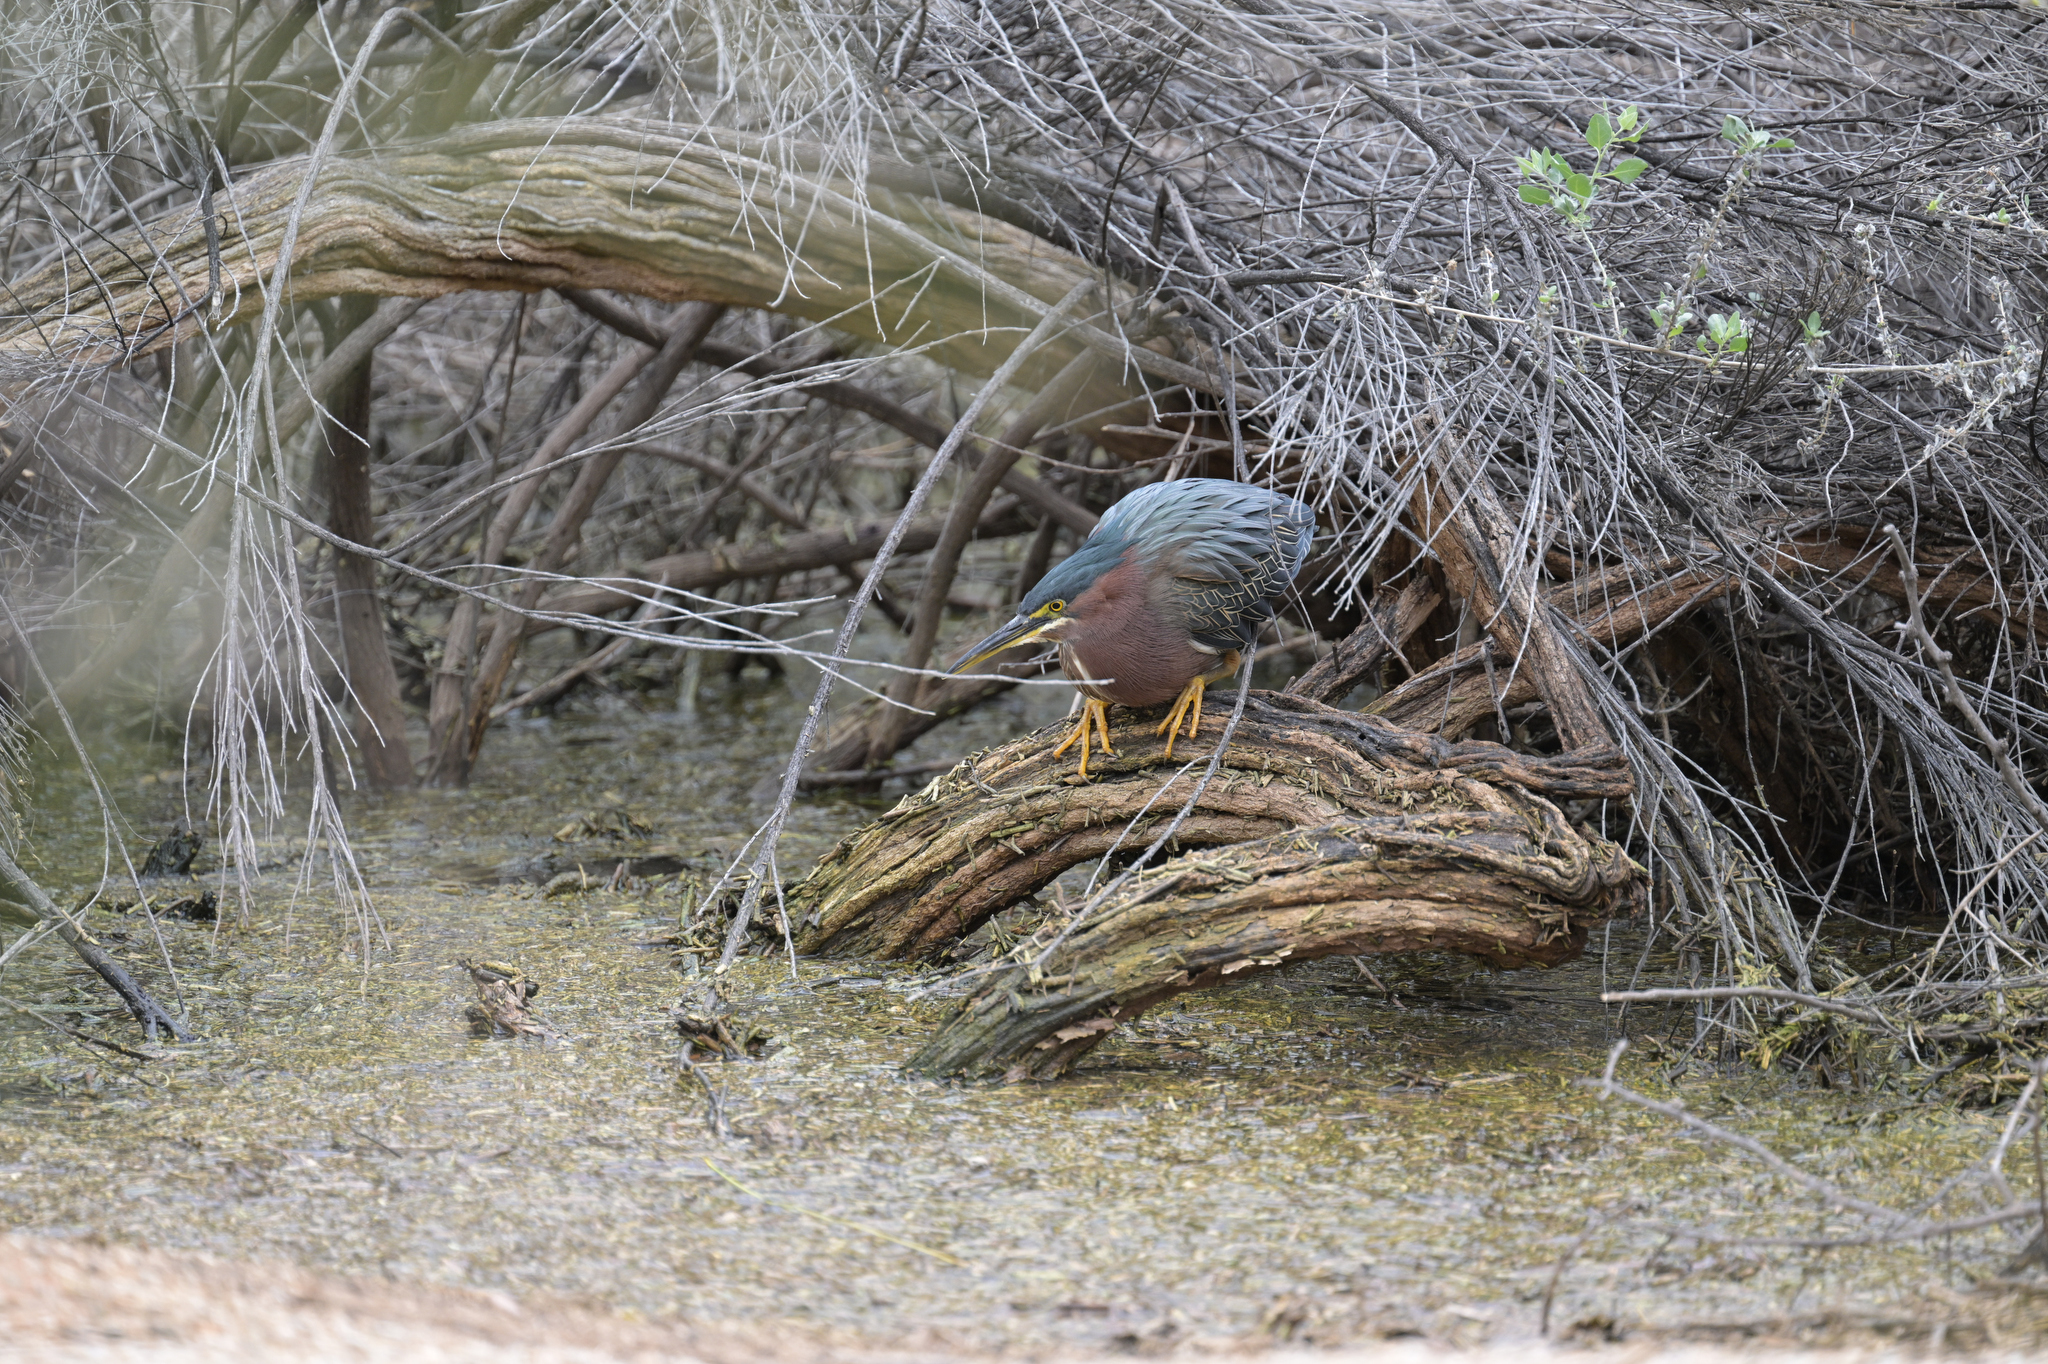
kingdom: Animalia
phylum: Chordata
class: Aves
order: Pelecaniformes
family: Ardeidae
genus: Butorides
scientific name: Butorides virescens
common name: Green heron
